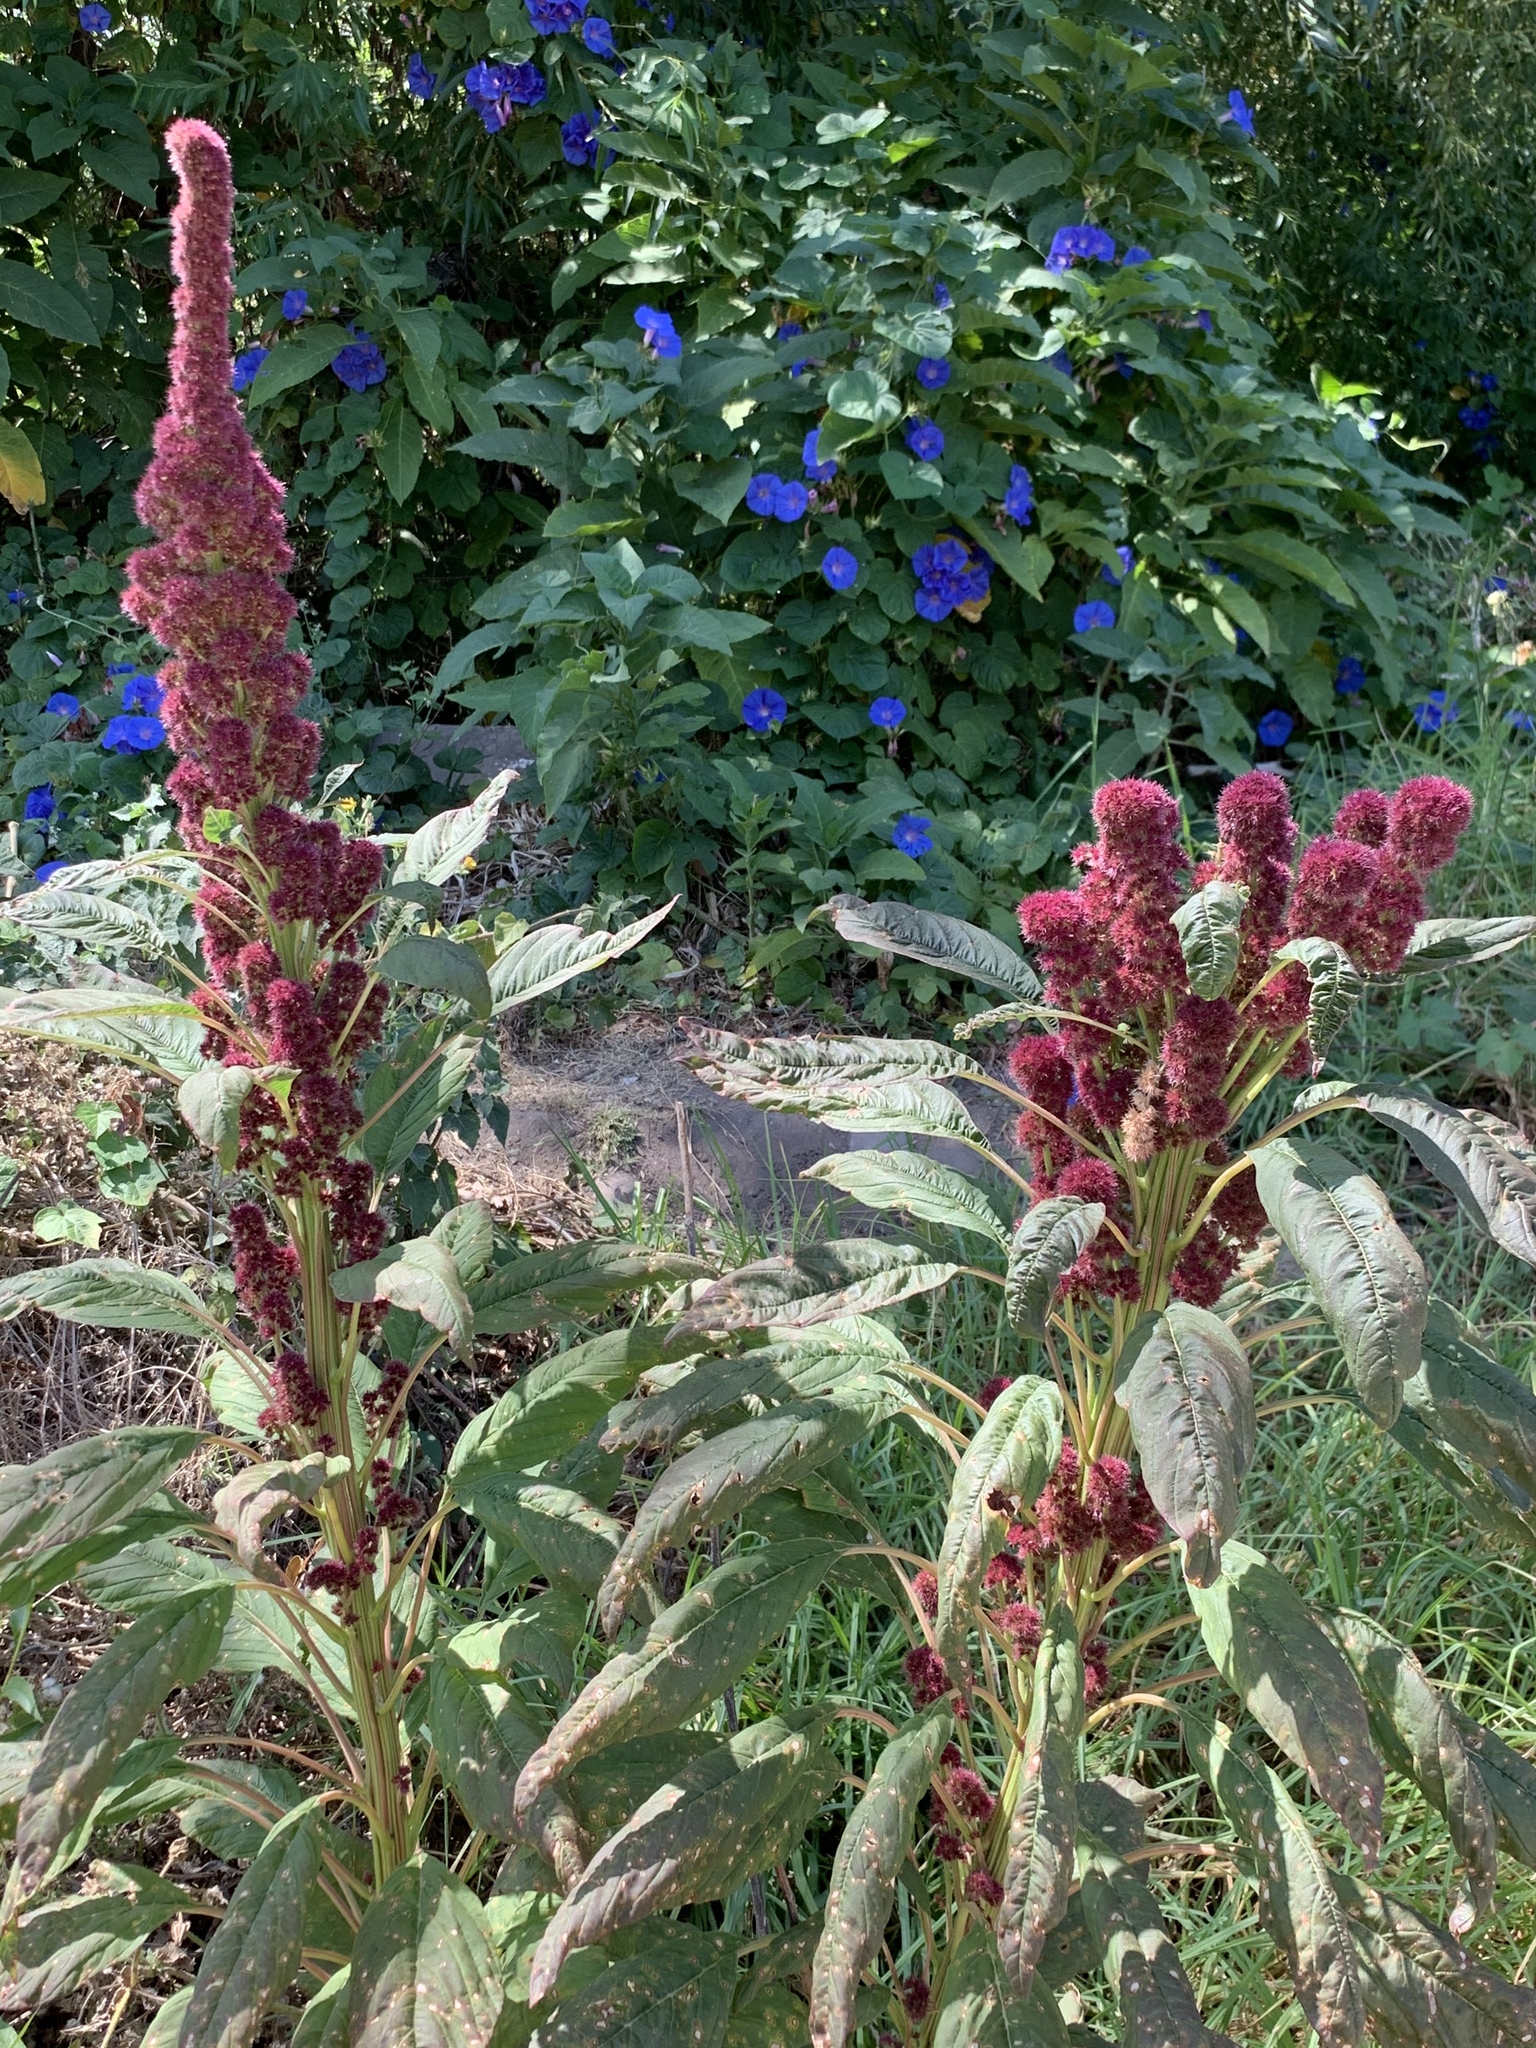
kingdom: Plantae
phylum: Tracheophyta
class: Magnoliopsida
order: Caryophyllales
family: Amaranthaceae
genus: Amaranthus
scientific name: Amaranthus cruentus
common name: Purple amaranth
